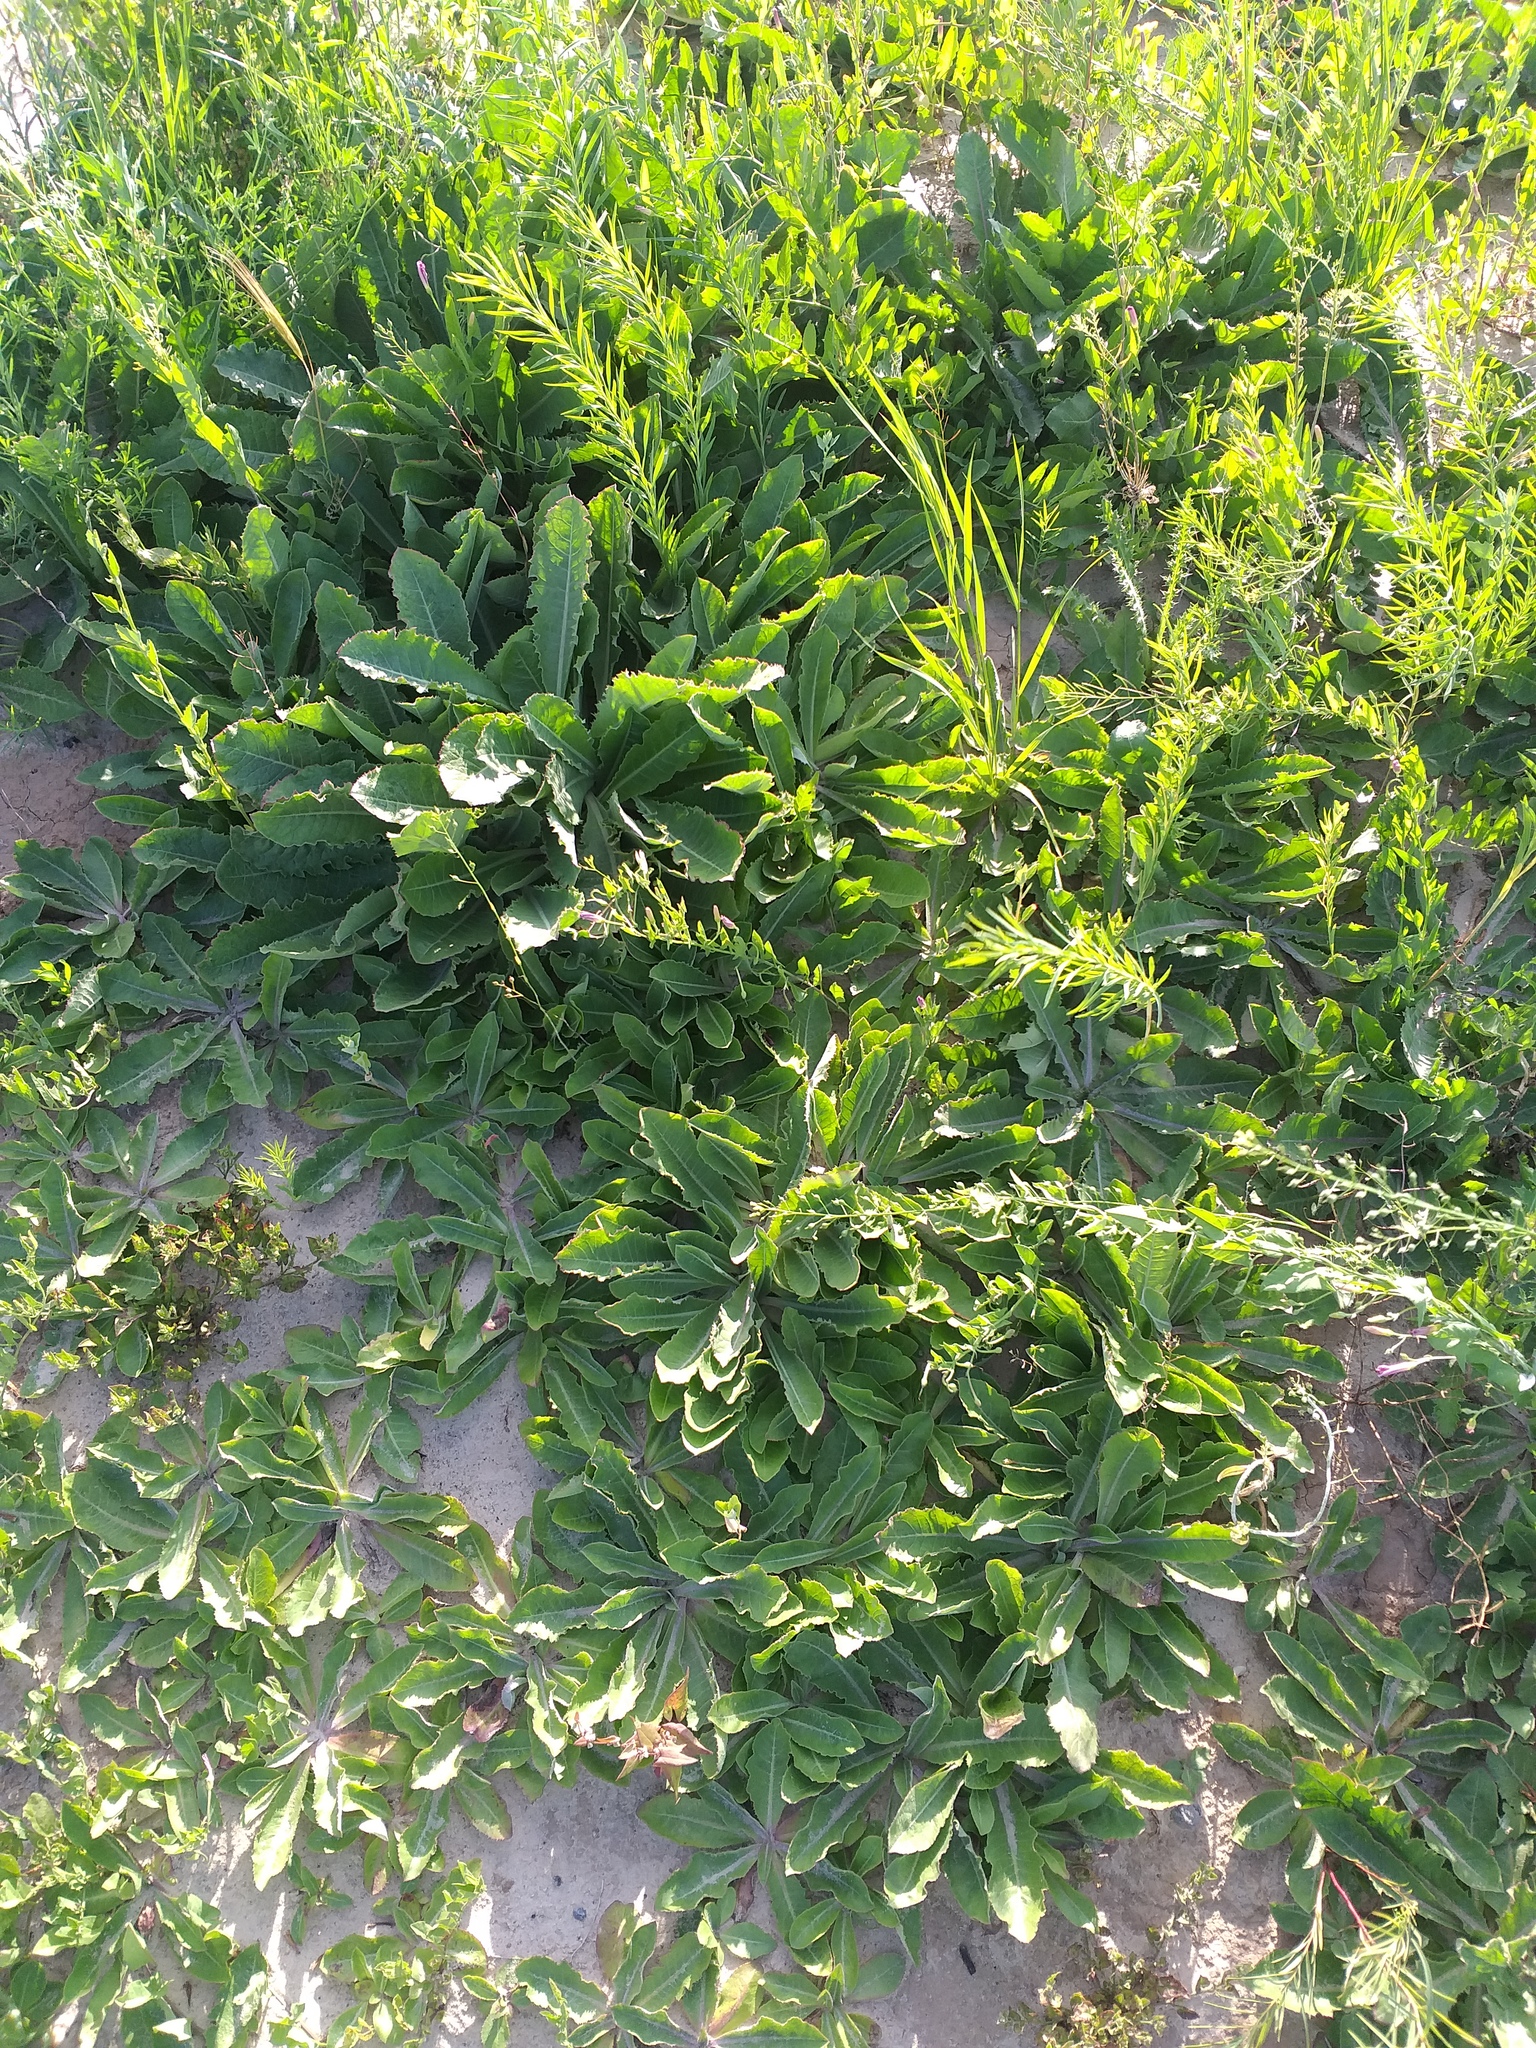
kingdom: Plantae
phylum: Tracheophyta
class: Magnoliopsida
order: Asterales
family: Asteraceae
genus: Taraxacum
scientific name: Taraxacum serotinum
